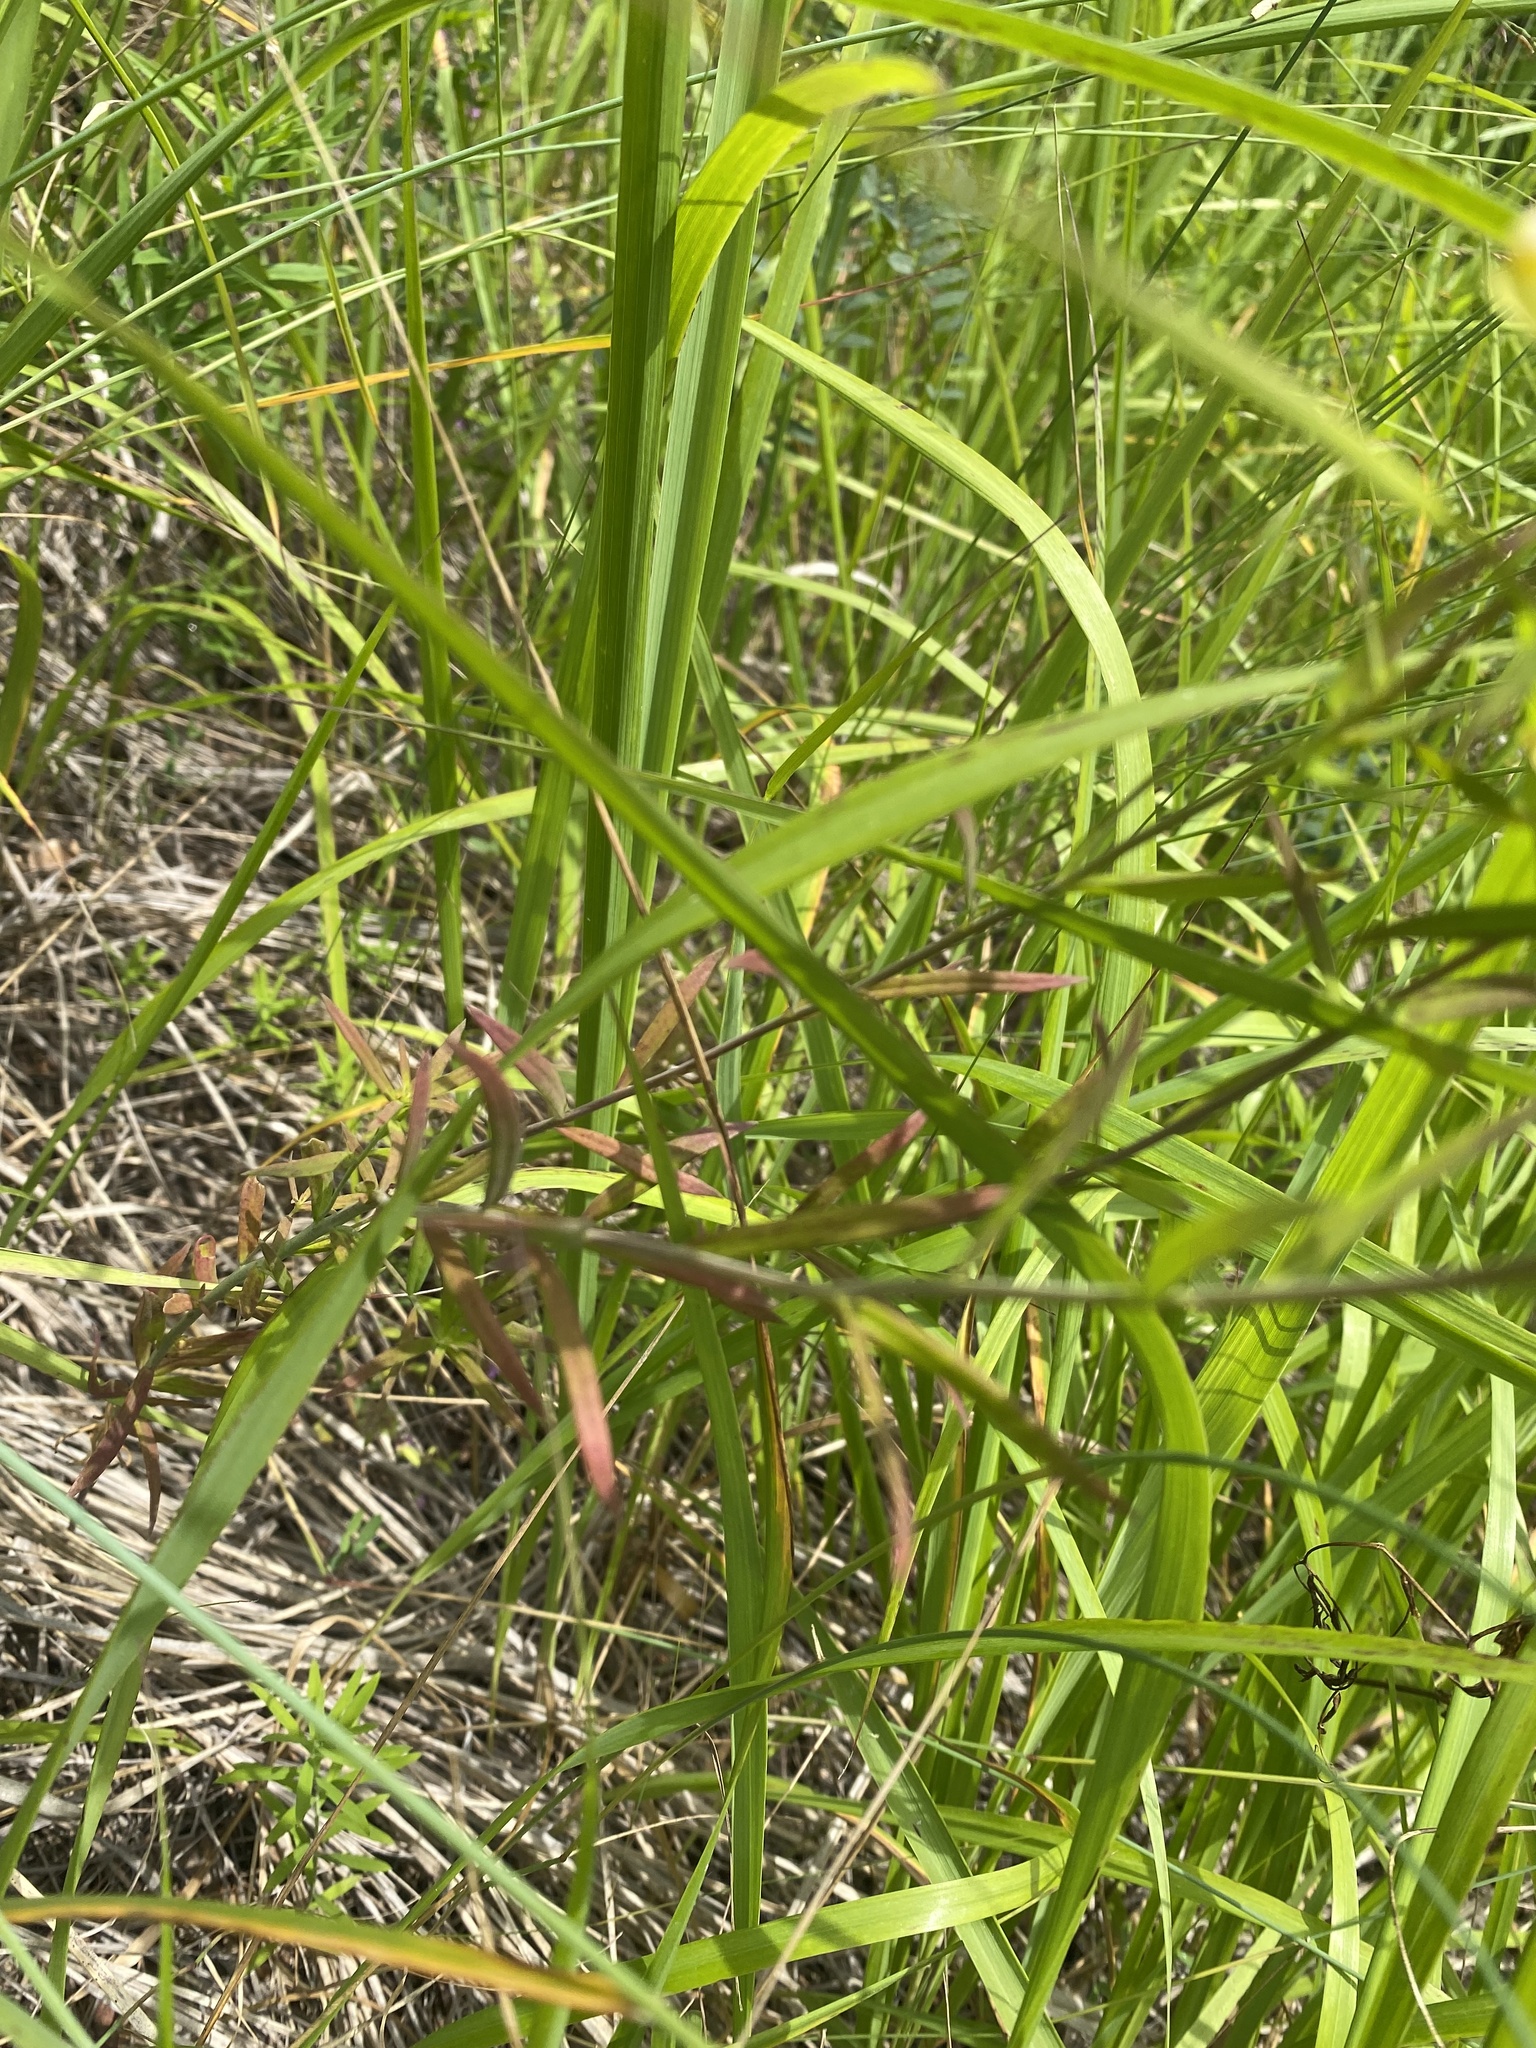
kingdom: Plantae
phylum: Tracheophyta
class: Magnoliopsida
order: Lamiales
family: Plantaginaceae
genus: Linaria
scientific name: Linaria vulgaris
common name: Butter and eggs
